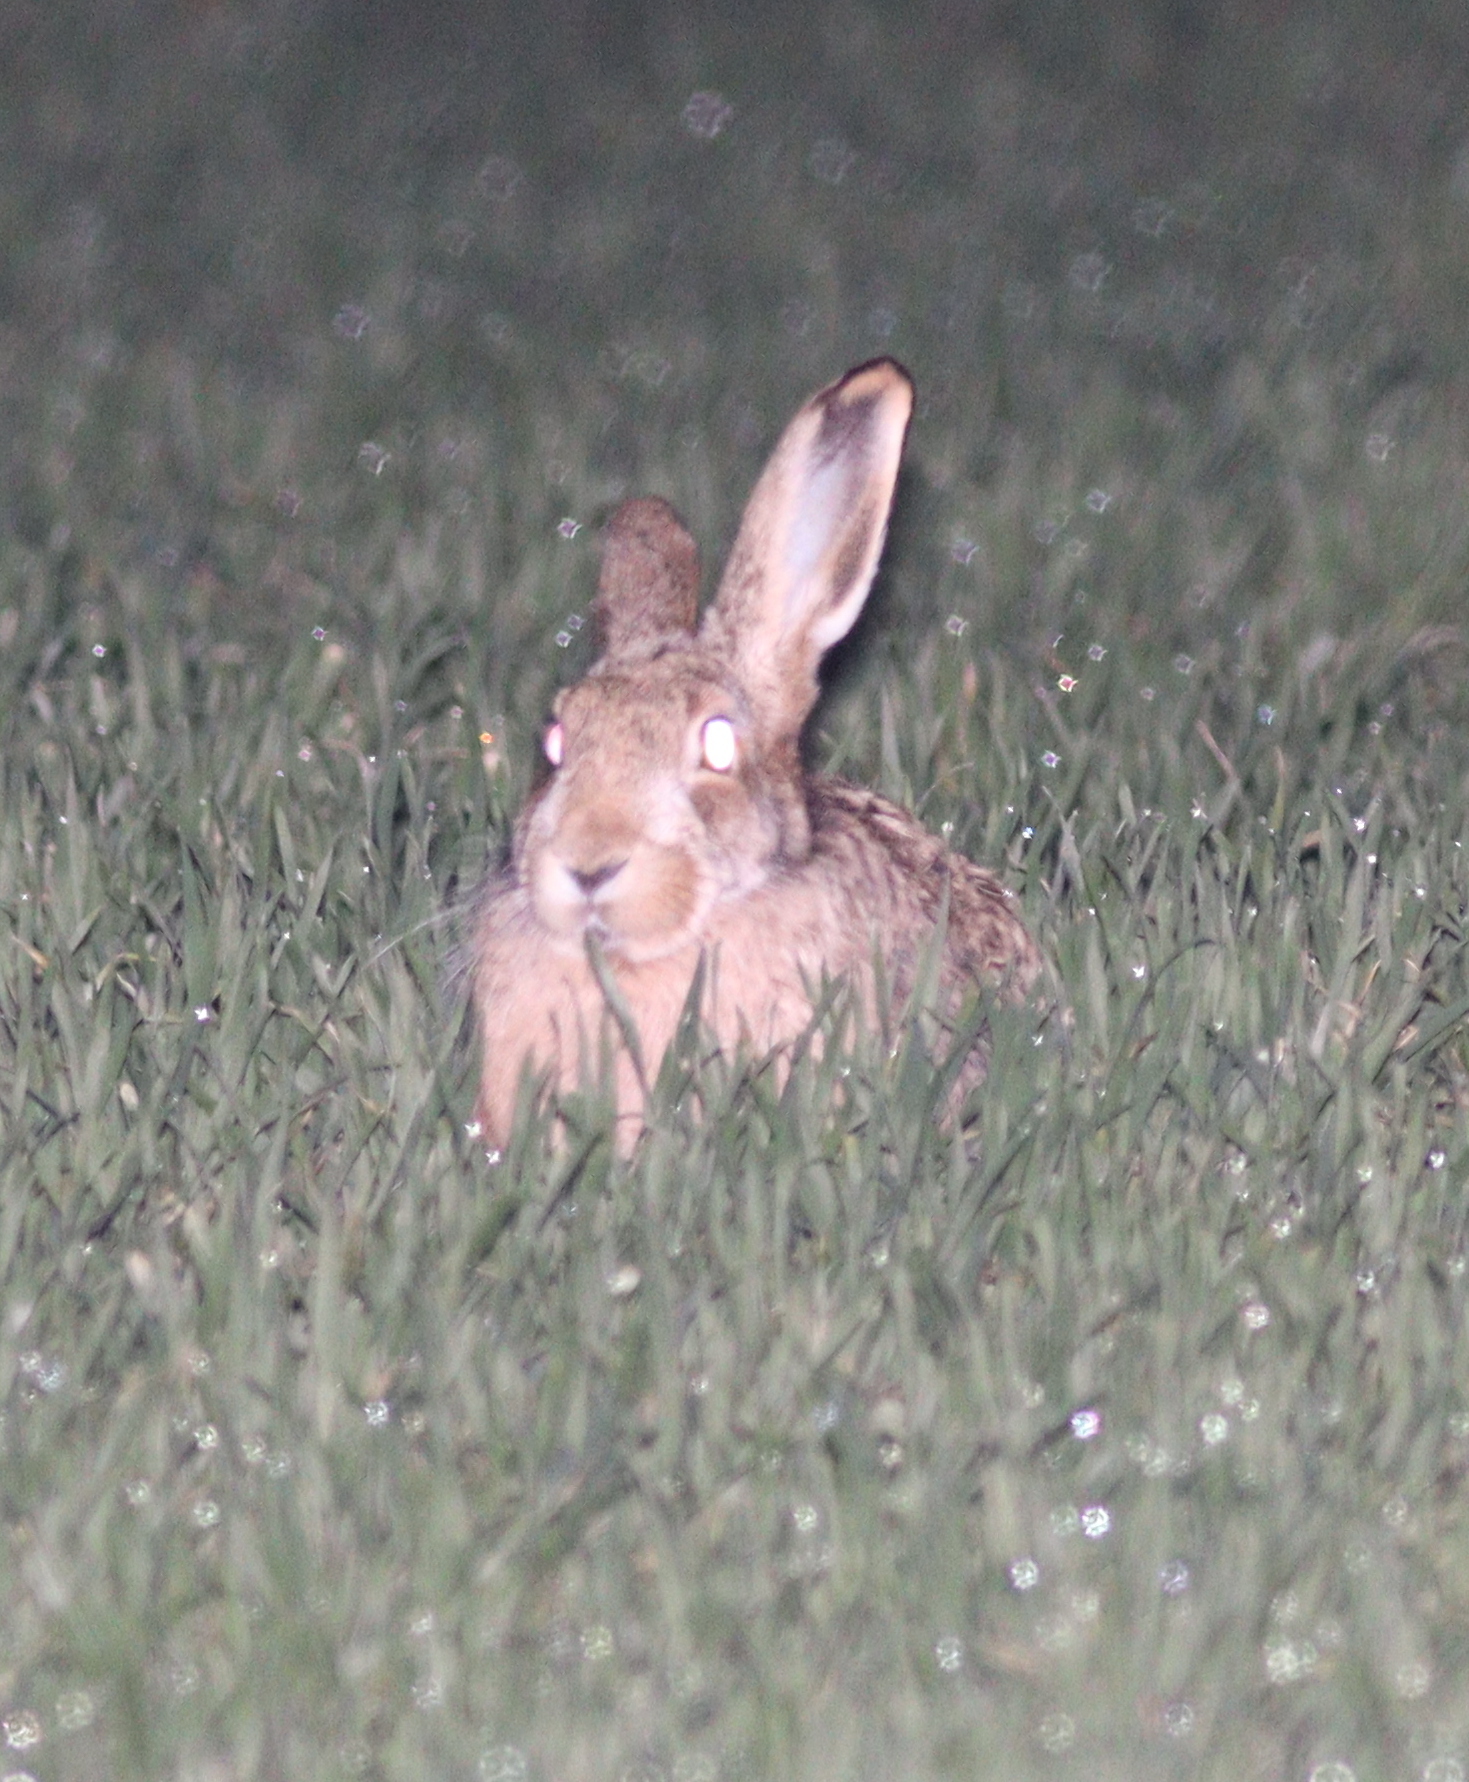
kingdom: Animalia
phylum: Chordata
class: Mammalia
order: Lagomorpha
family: Leporidae
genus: Lepus
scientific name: Lepus europaeus
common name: European hare
